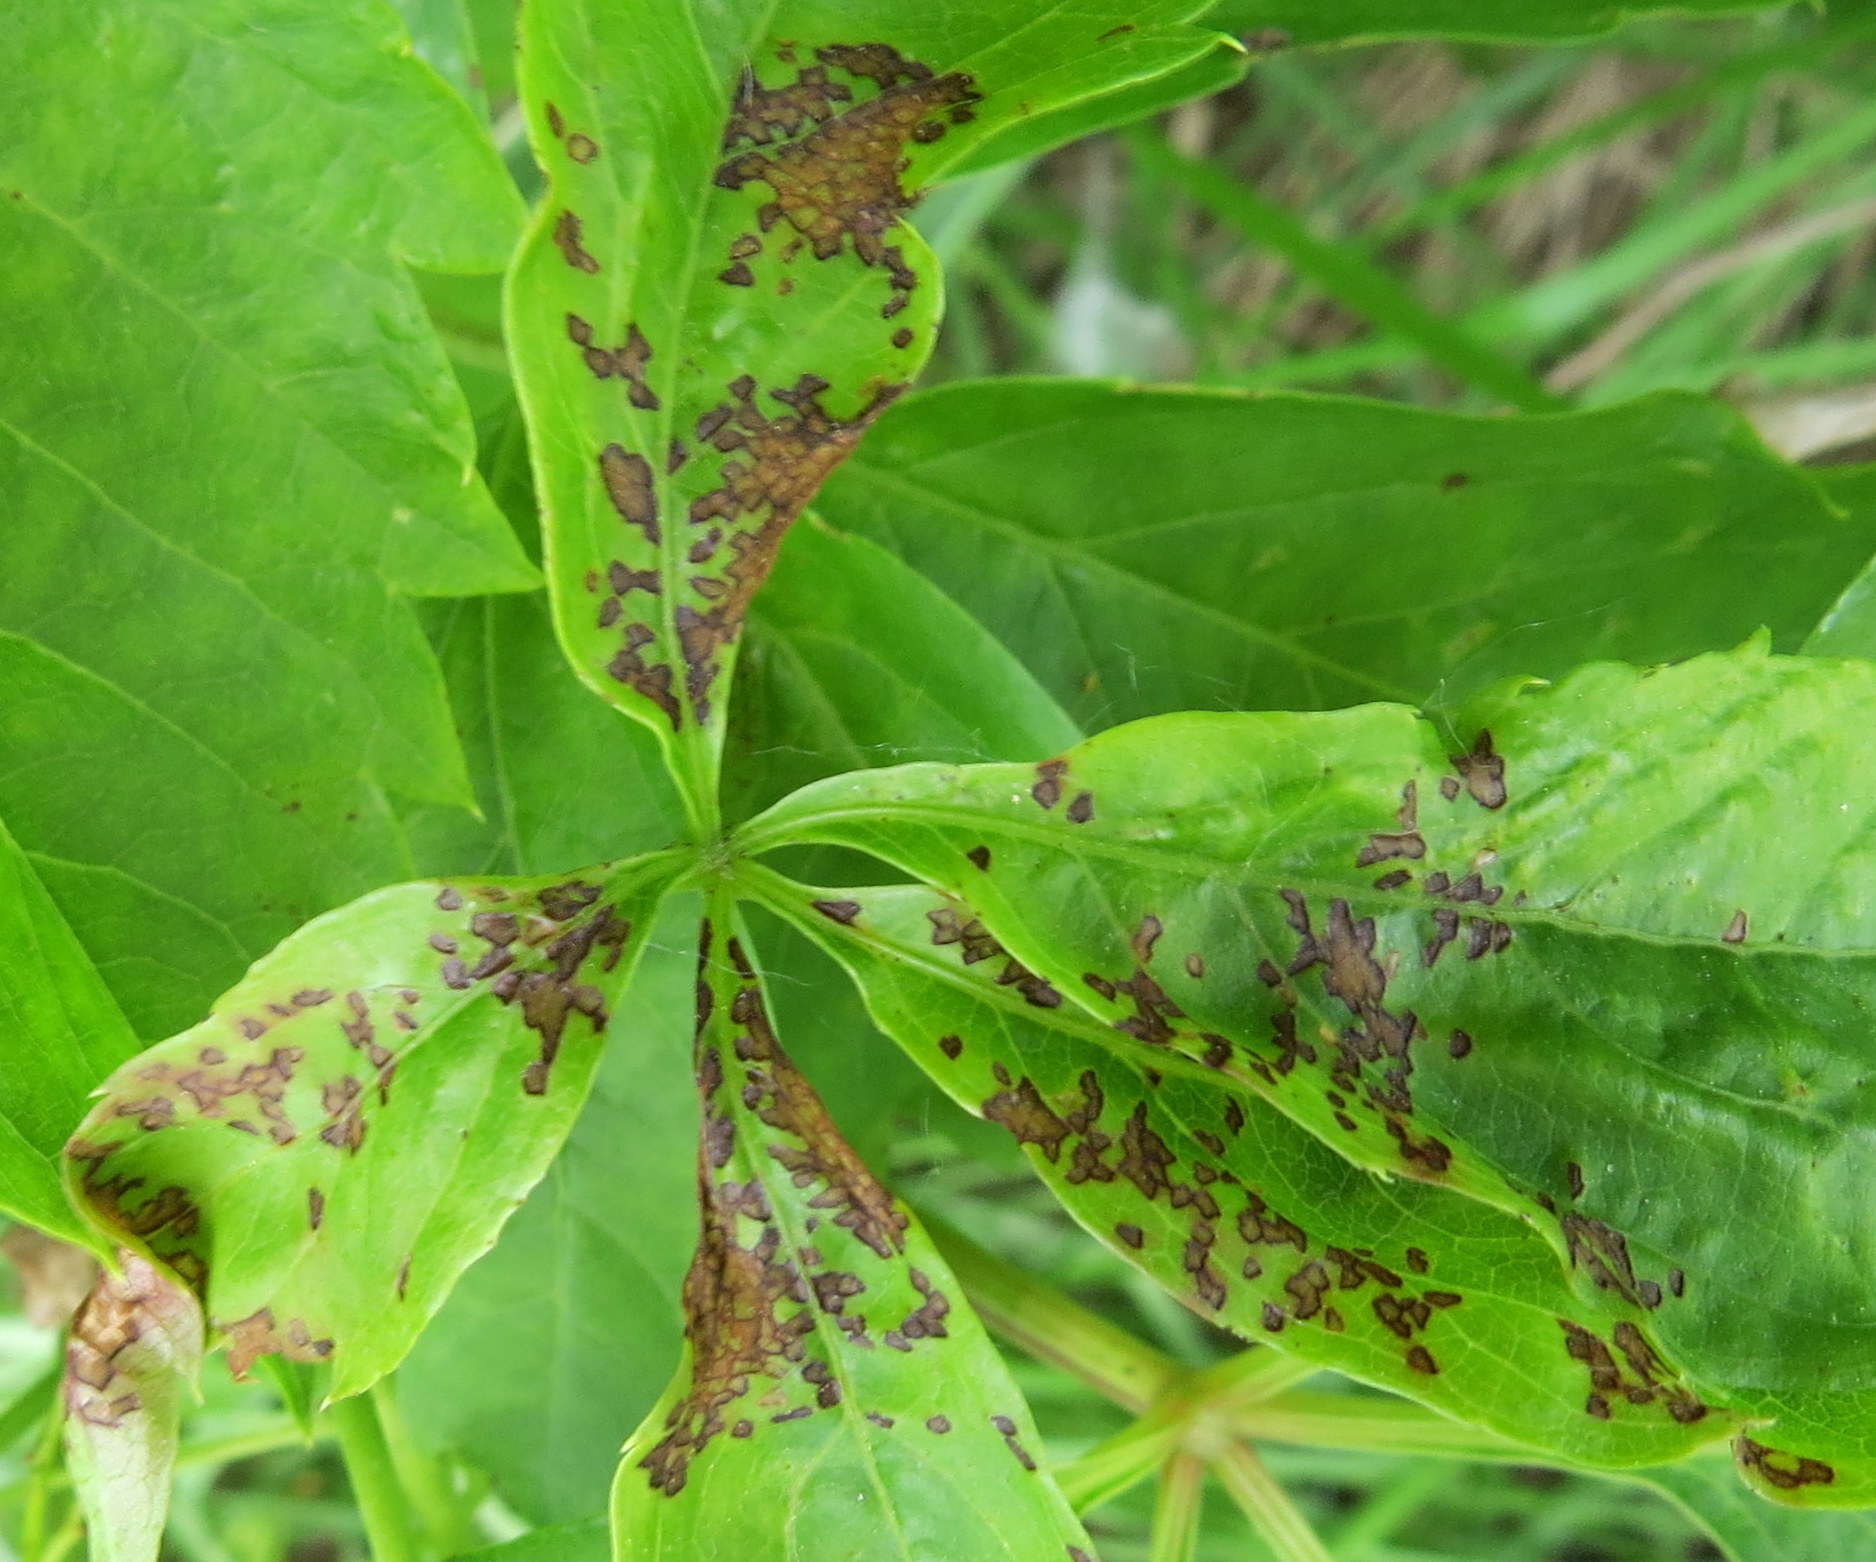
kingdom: Animalia
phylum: Arthropoda
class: Insecta
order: Hemiptera
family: Miridae
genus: Poecilocapsus
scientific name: Poecilocapsus lineatus
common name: Four-lined plant bug
